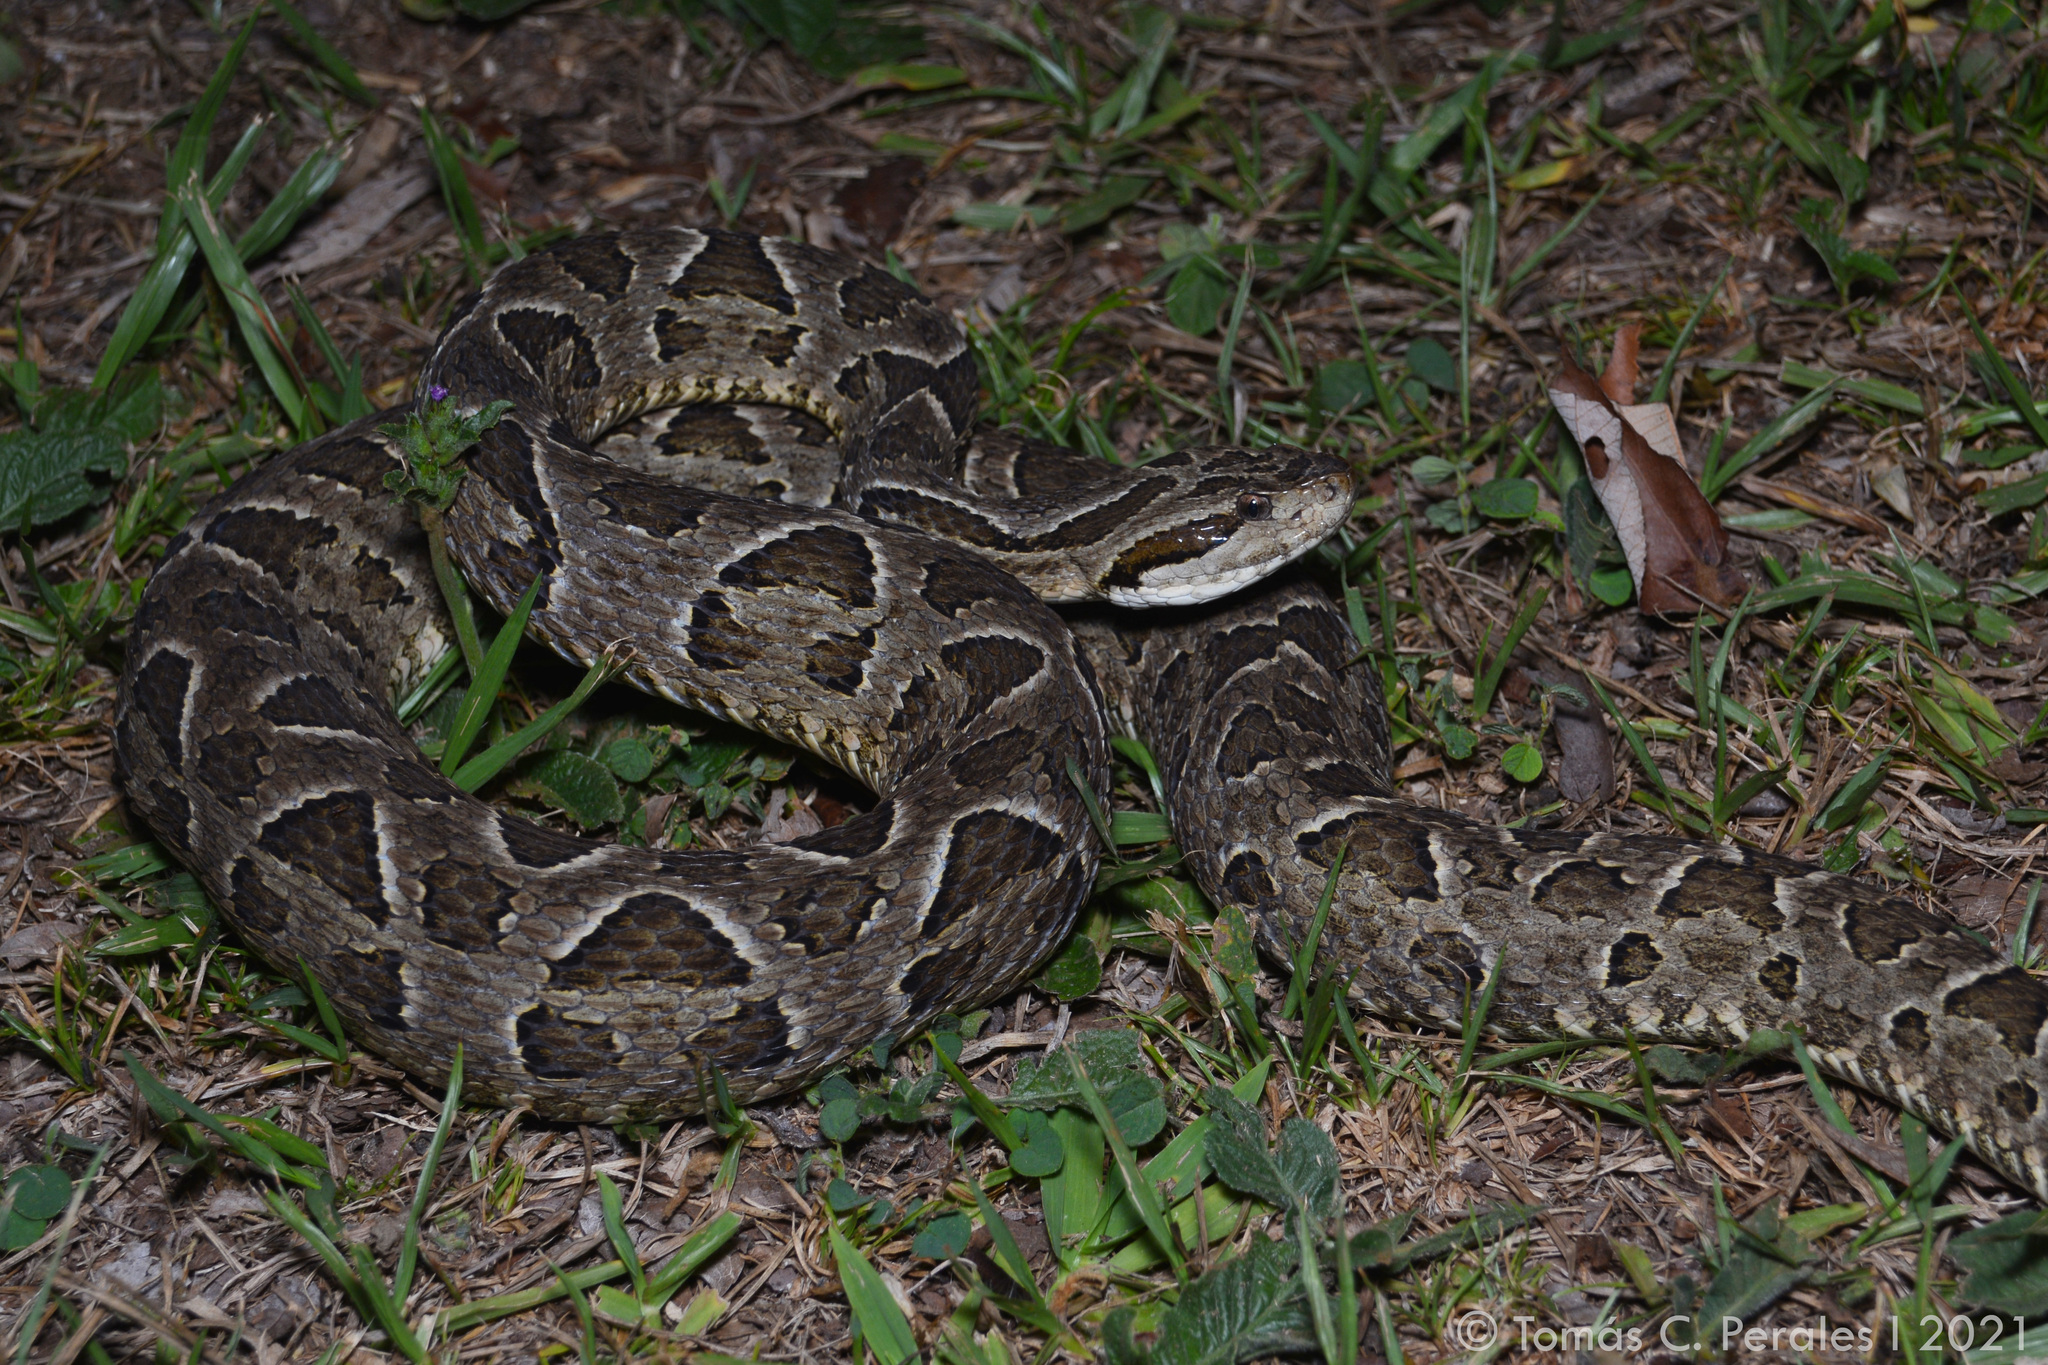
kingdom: Animalia
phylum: Chordata
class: Squamata
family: Viperidae
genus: Bothrops
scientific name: Bothrops neuwiedi
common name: Jararaca pintada
